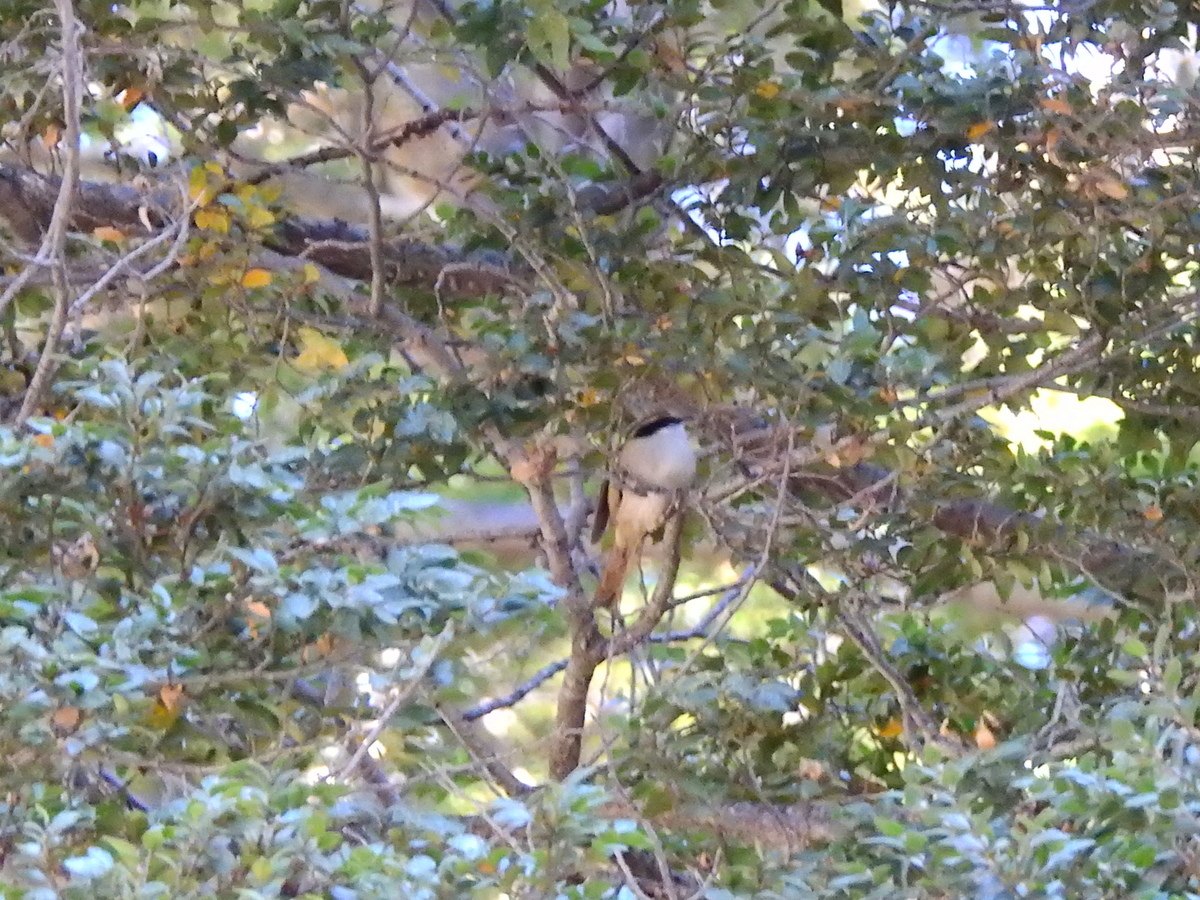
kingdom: Animalia
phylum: Chordata
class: Aves
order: Passeriformes
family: Furnariidae
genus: Aphrastura
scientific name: Aphrastura spinicauda
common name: Thorn-tailed rayadito
